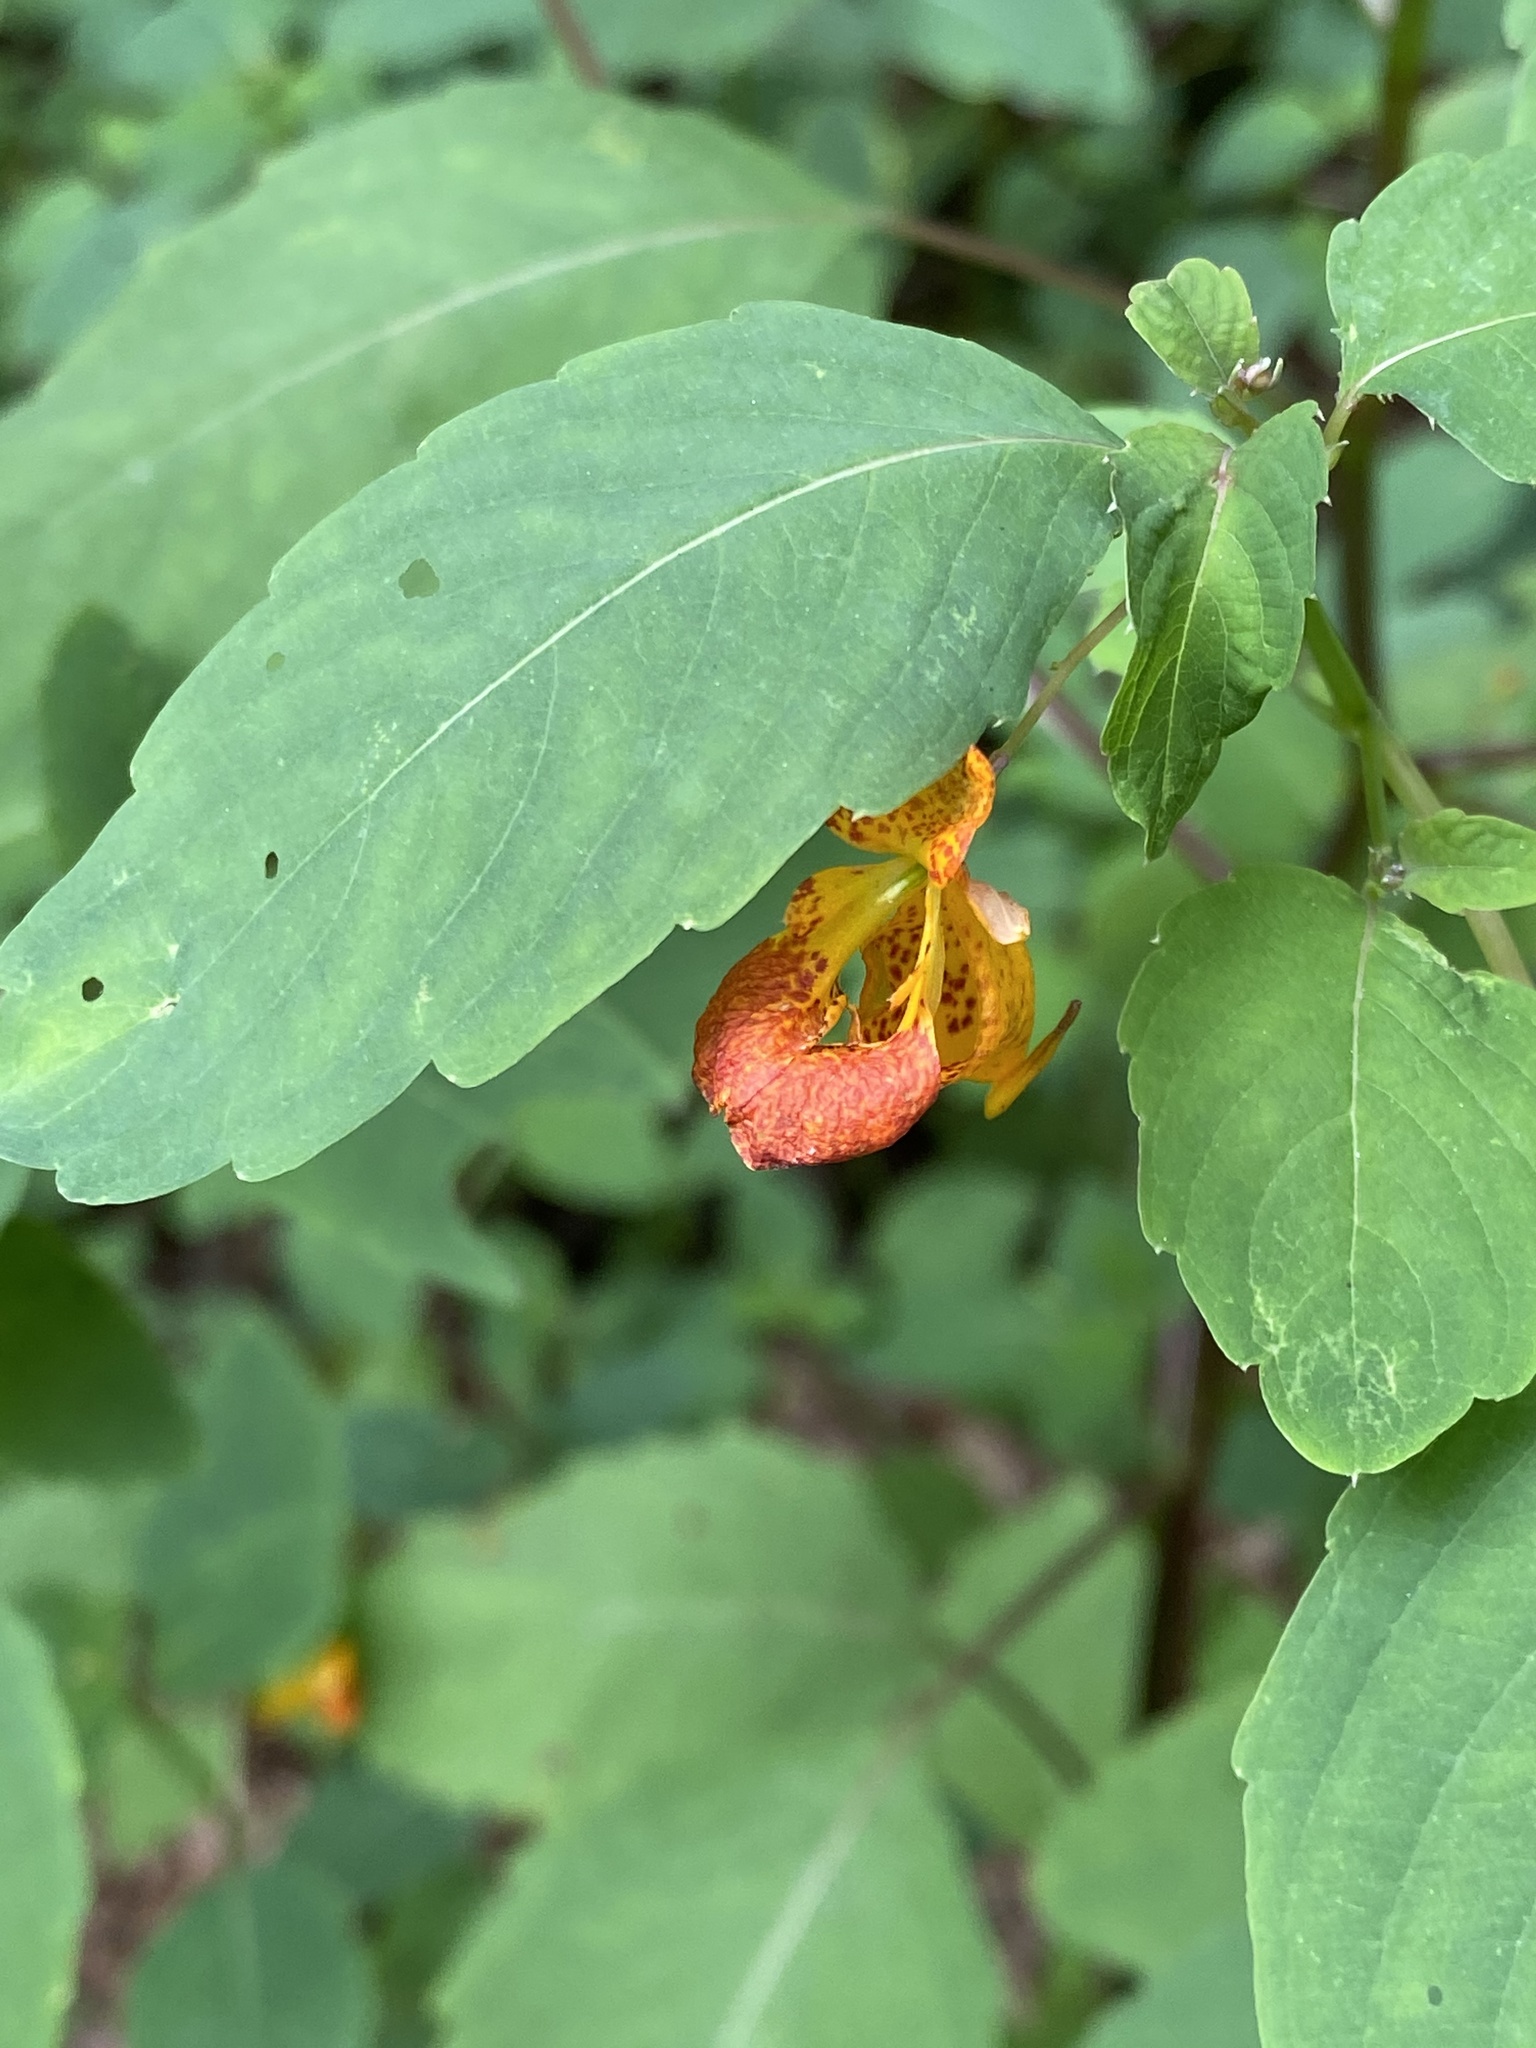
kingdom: Plantae
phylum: Tracheophyta
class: Magnoliopsida
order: Ericales
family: Balsaminaceae
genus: Impatiens
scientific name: Impatiens capensis
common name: Orange balsam
